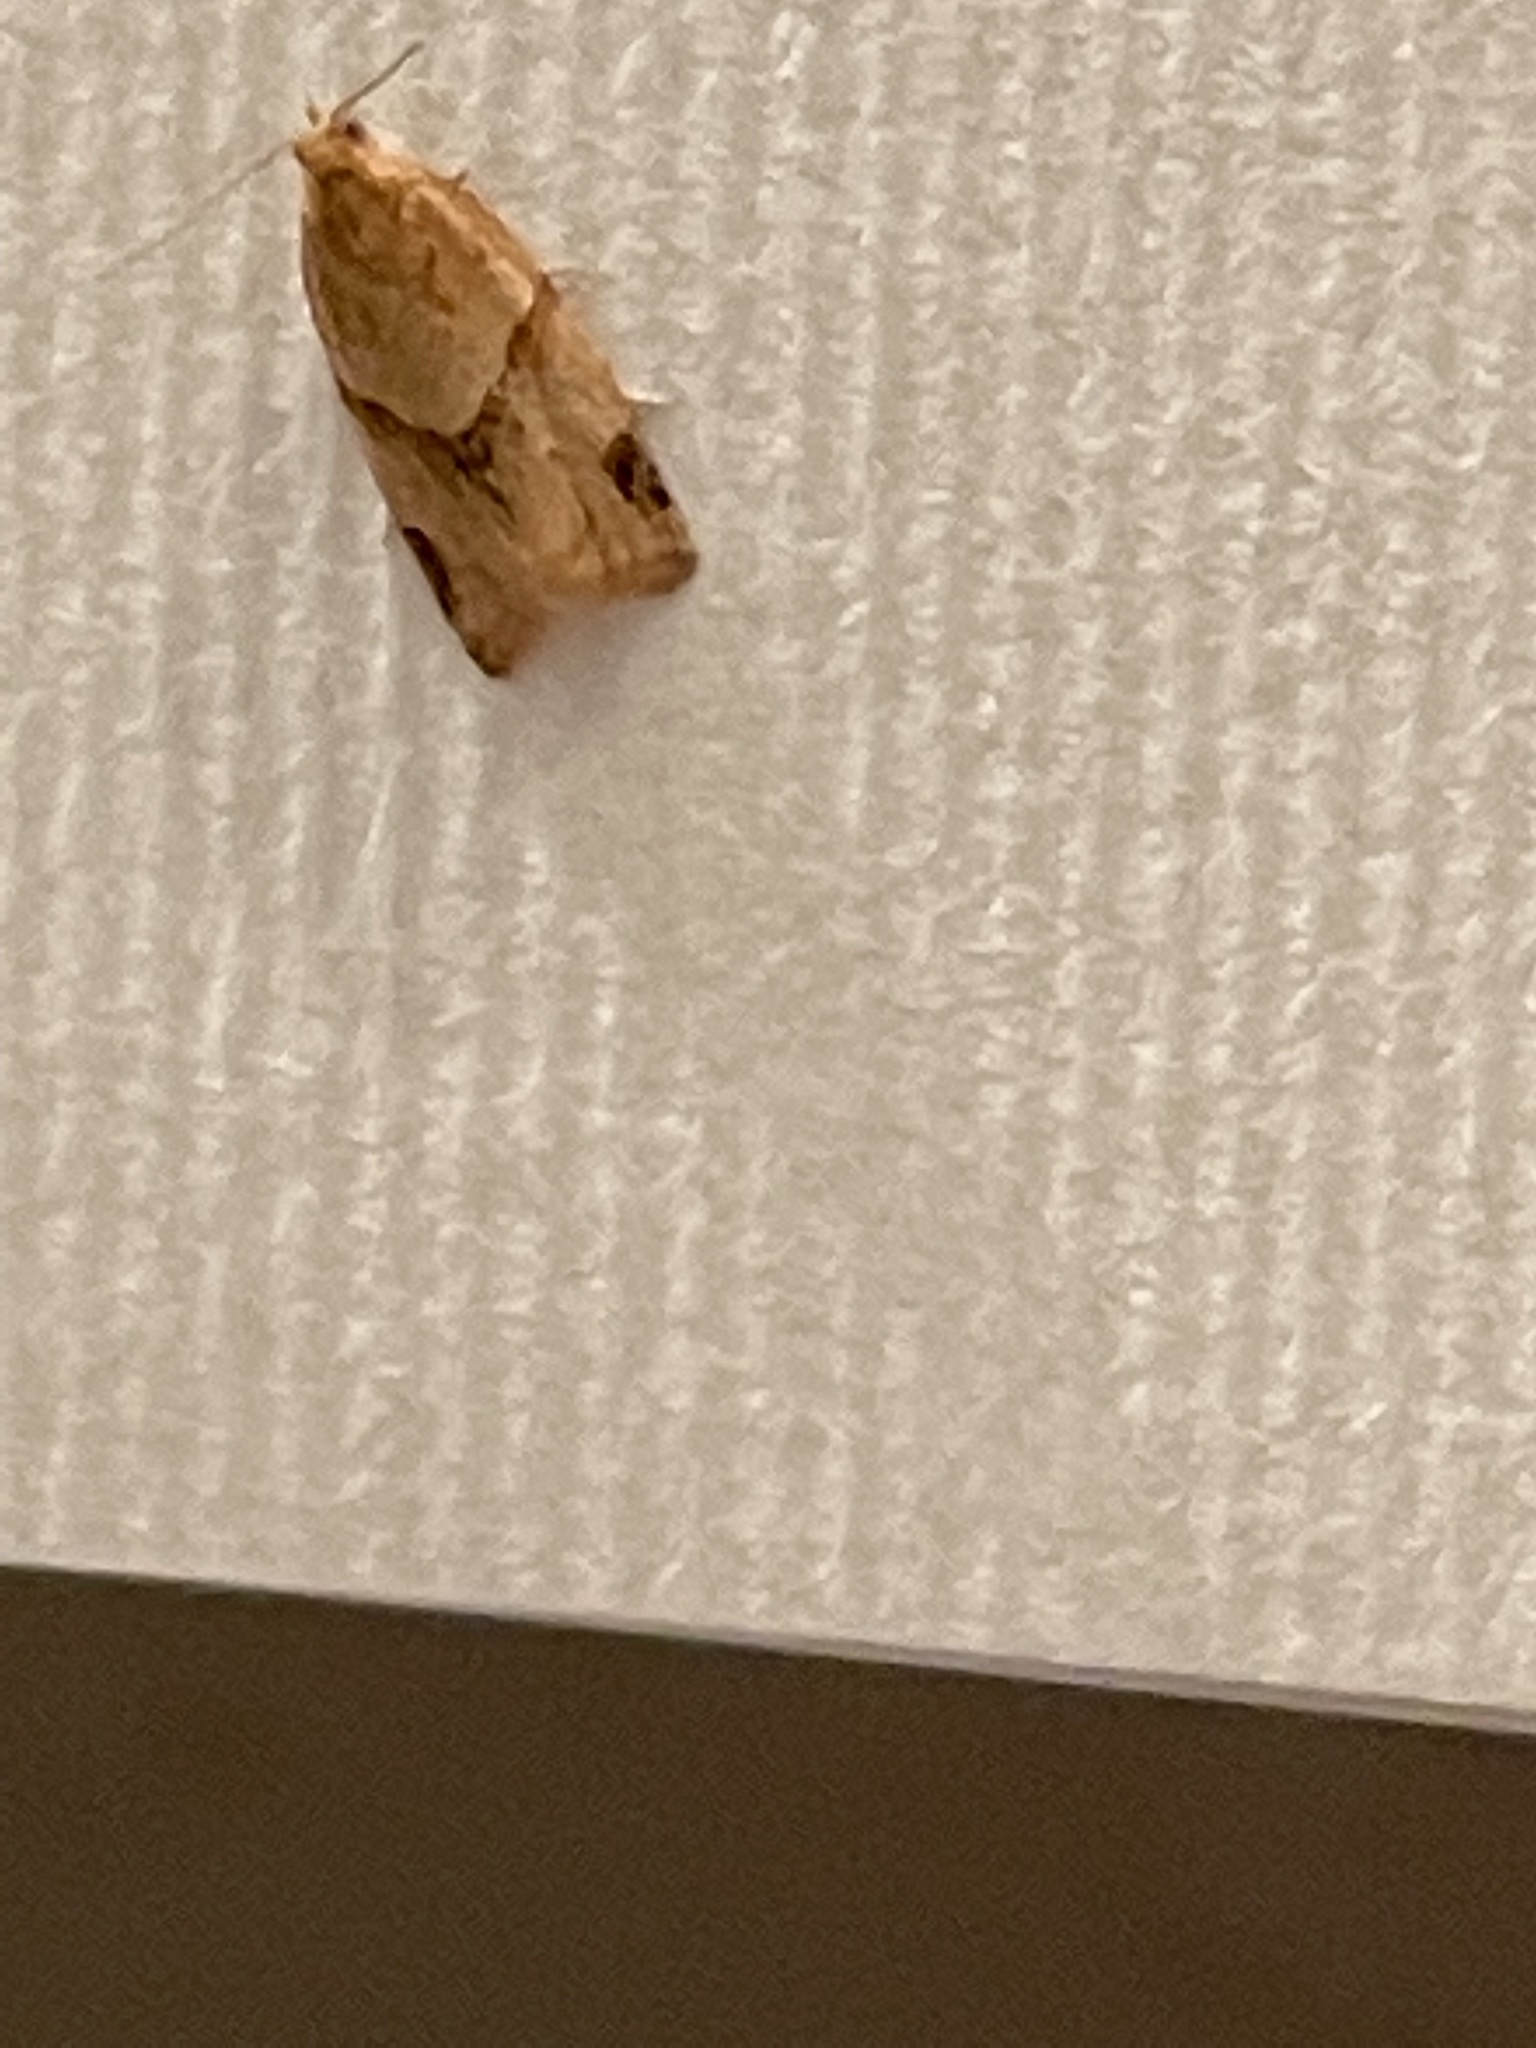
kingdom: Animalia
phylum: Arthropoda
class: Insecta
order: Lepidoptera
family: Tortricidae
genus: Clepsis
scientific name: Clepsis peritana
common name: Garden tortrix
